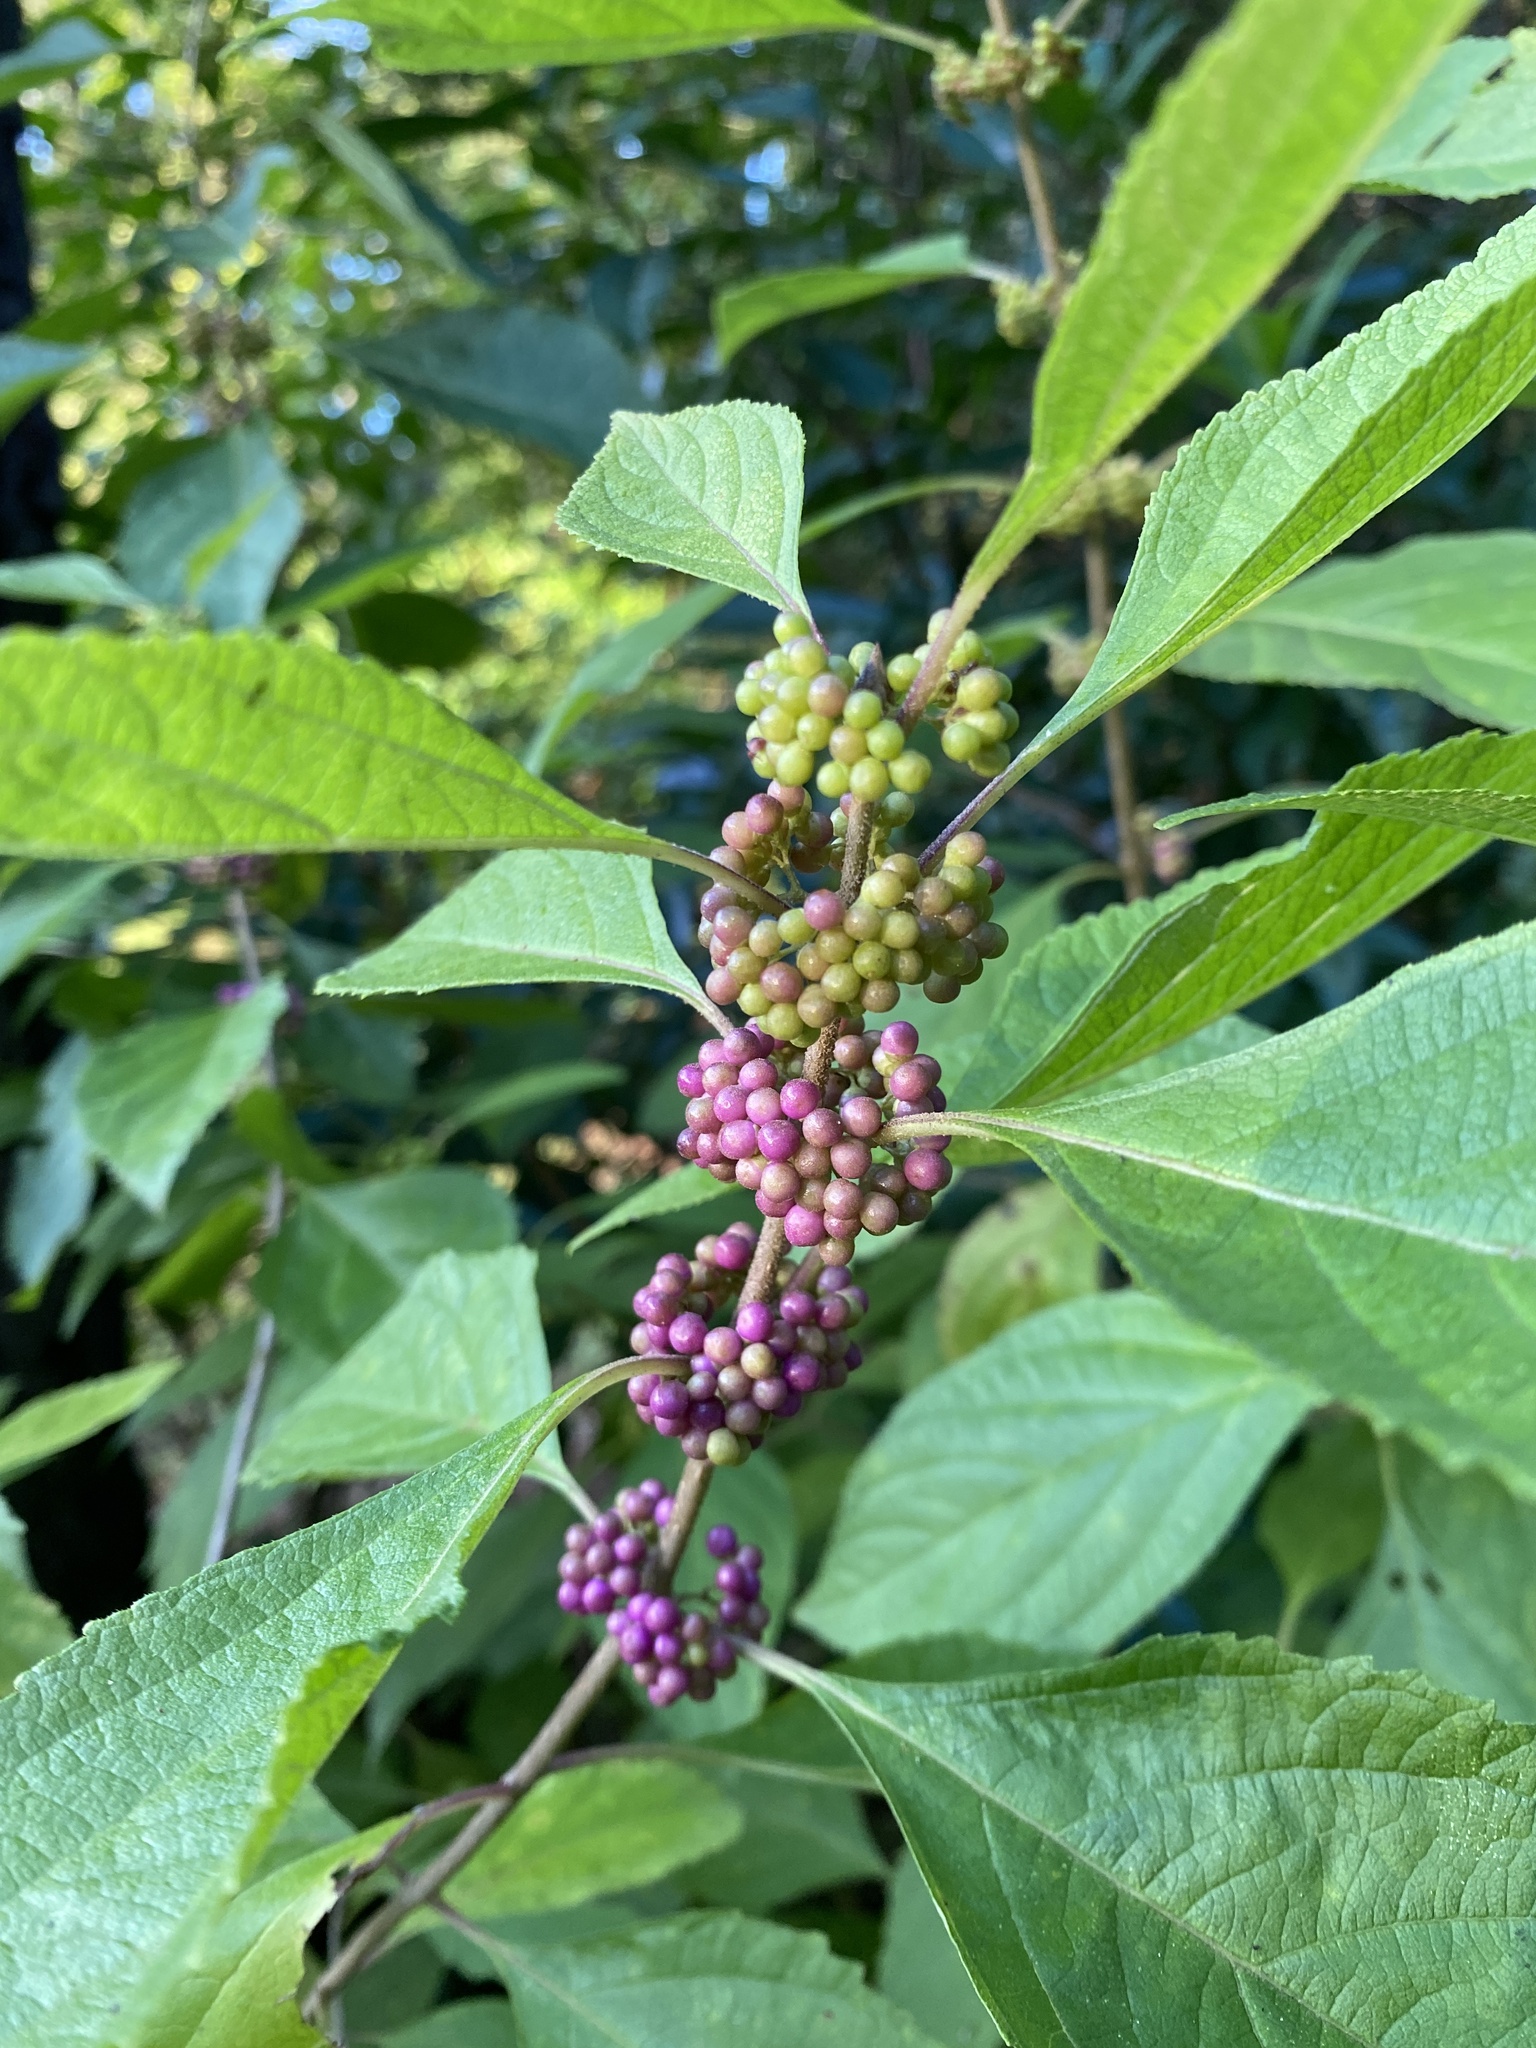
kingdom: Plantae
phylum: Tracheophyta
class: Magnoliopsida
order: Lamiales
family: Lamiaceae
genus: Callicarpa
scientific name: Callicarpa americana
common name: American beautyberry
